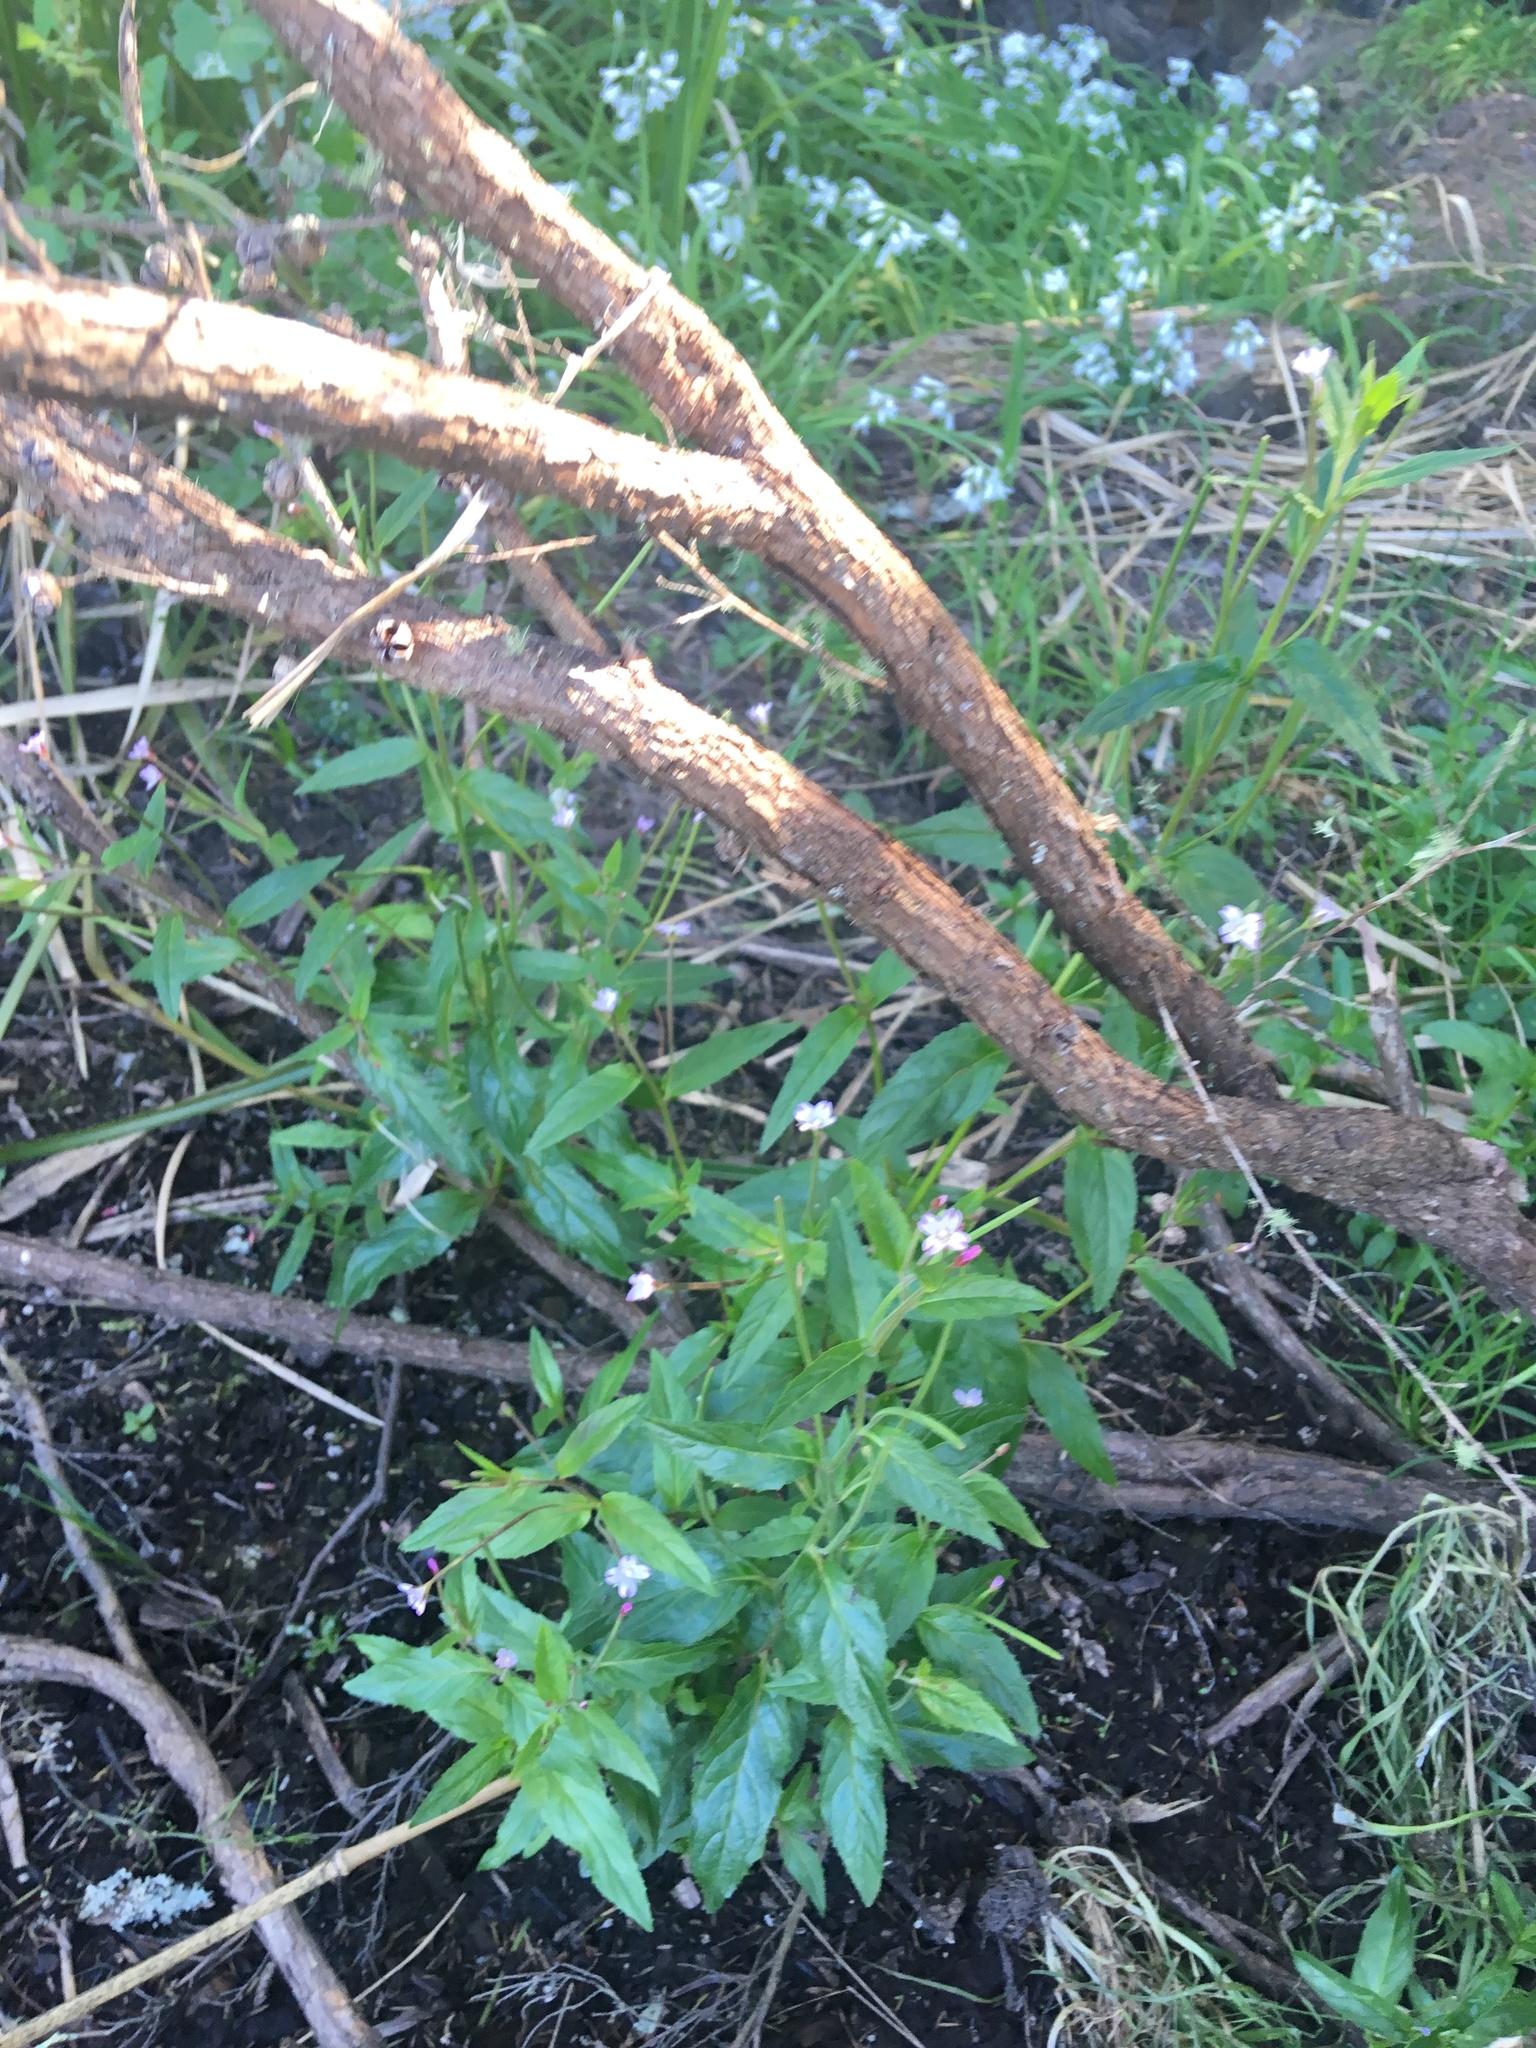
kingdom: Plantae
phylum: Tracheophyta
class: Magnoliopsida
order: Myrtales
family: Onagraceae
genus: Epilobium
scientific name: Epilobium ciliatum
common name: American willowherb
